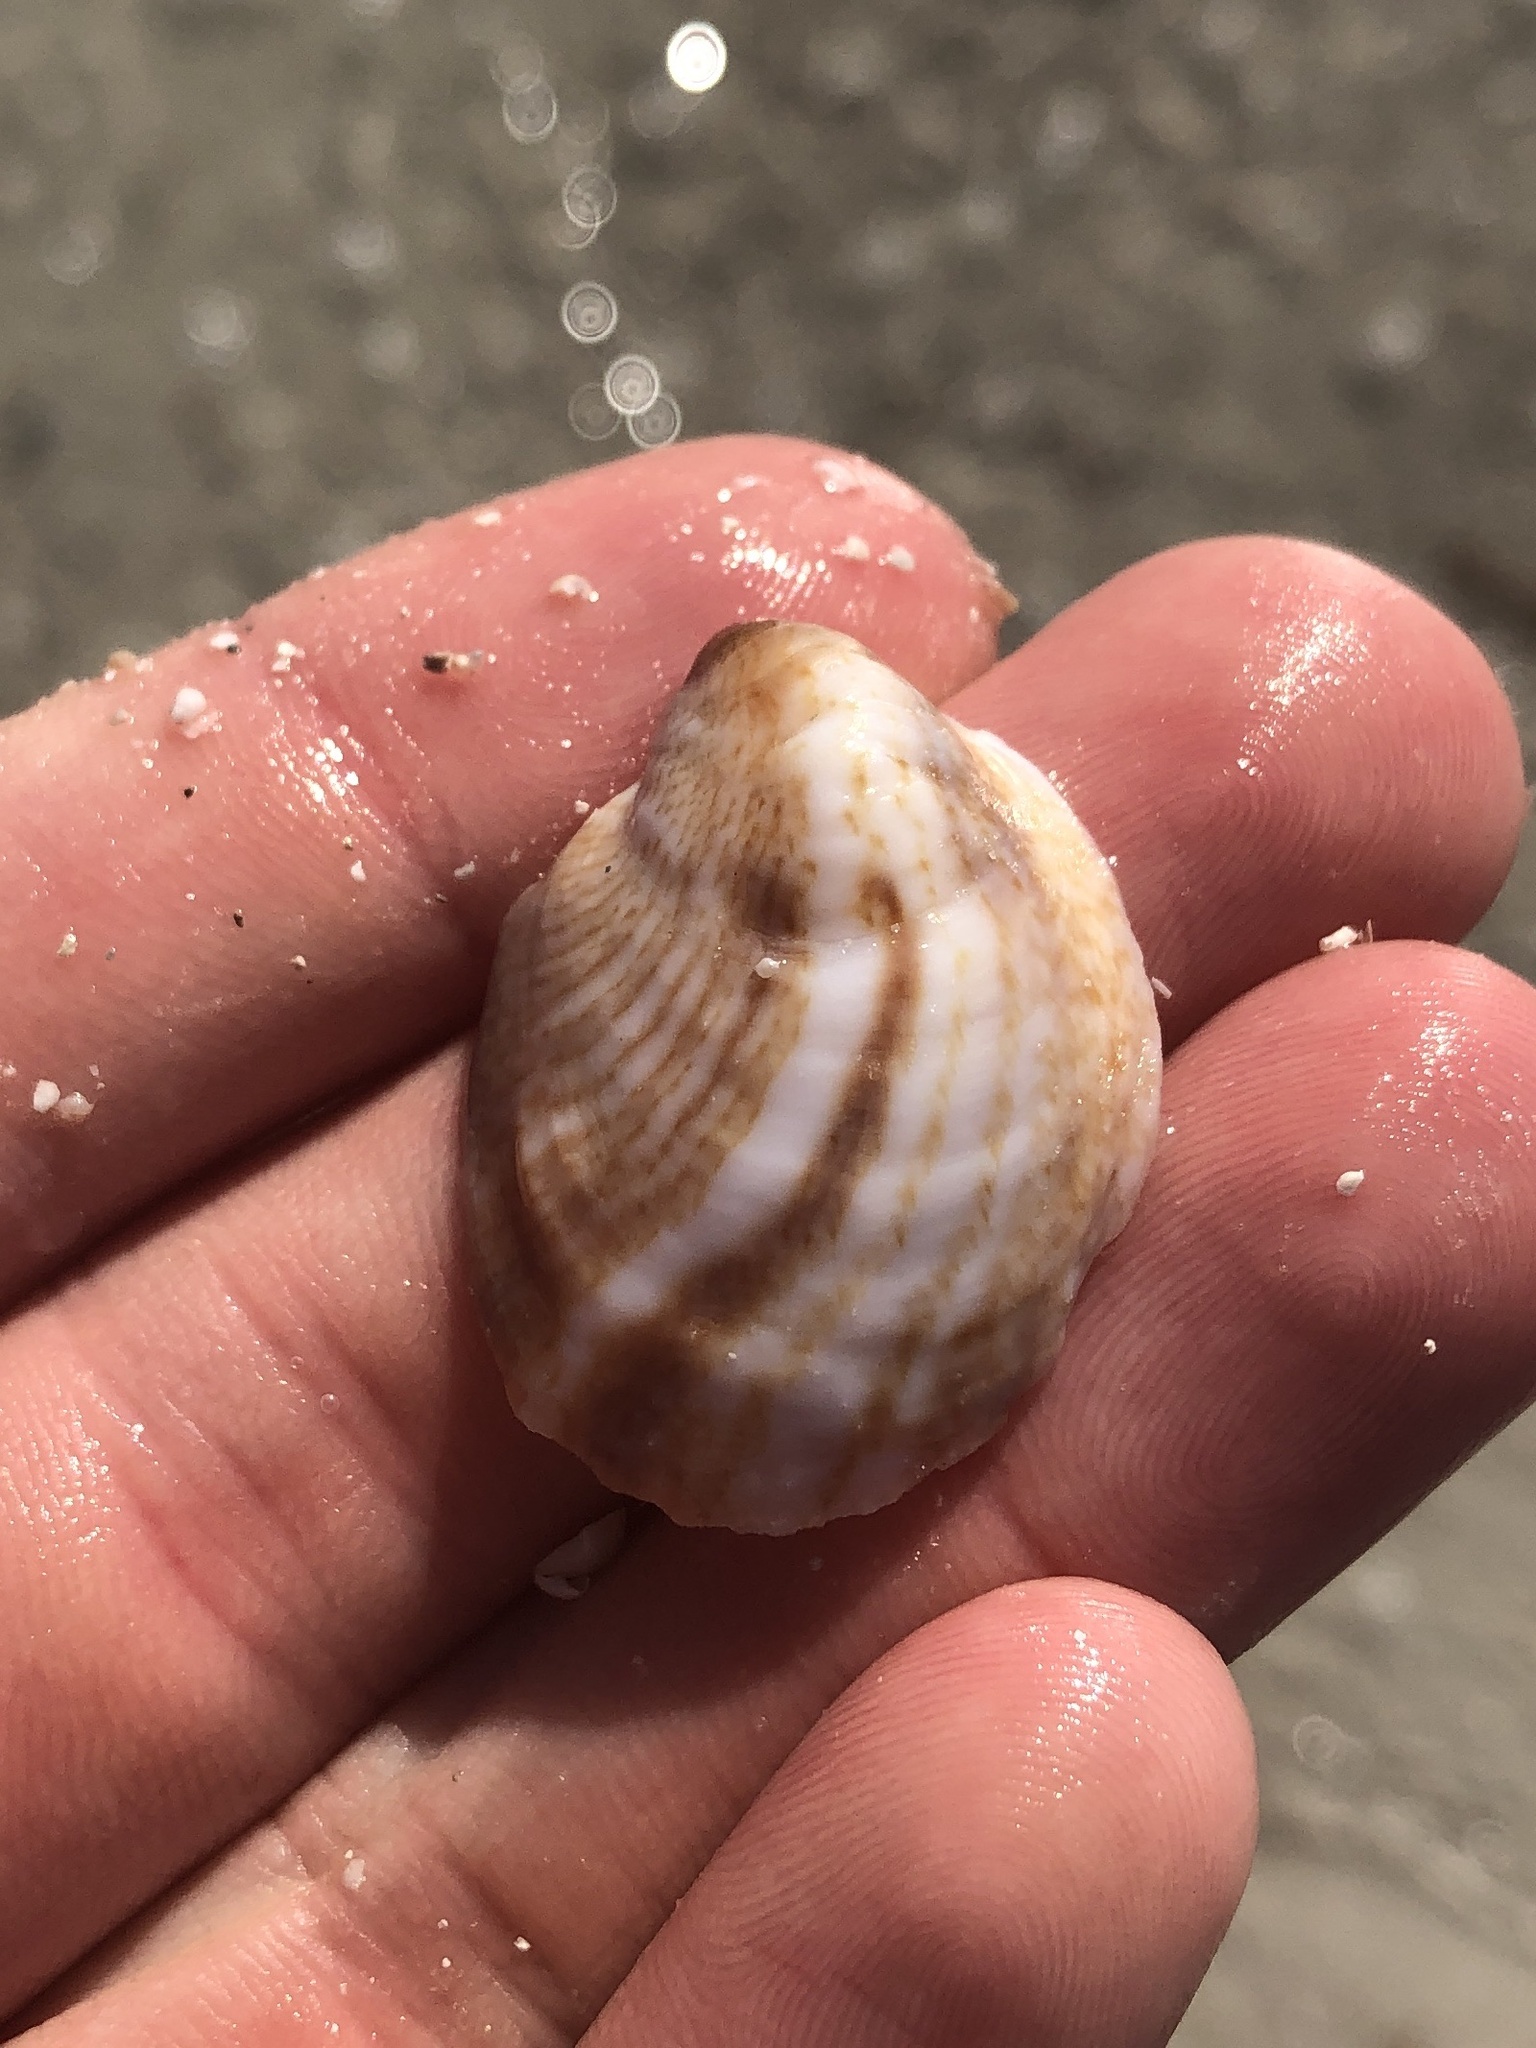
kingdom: Animalia
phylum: Mollusca
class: Gastropoda
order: Littorinimorpha
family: Calyptraeidae
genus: Crepidula
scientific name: Crepidula fornicata
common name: Slipper limpet
